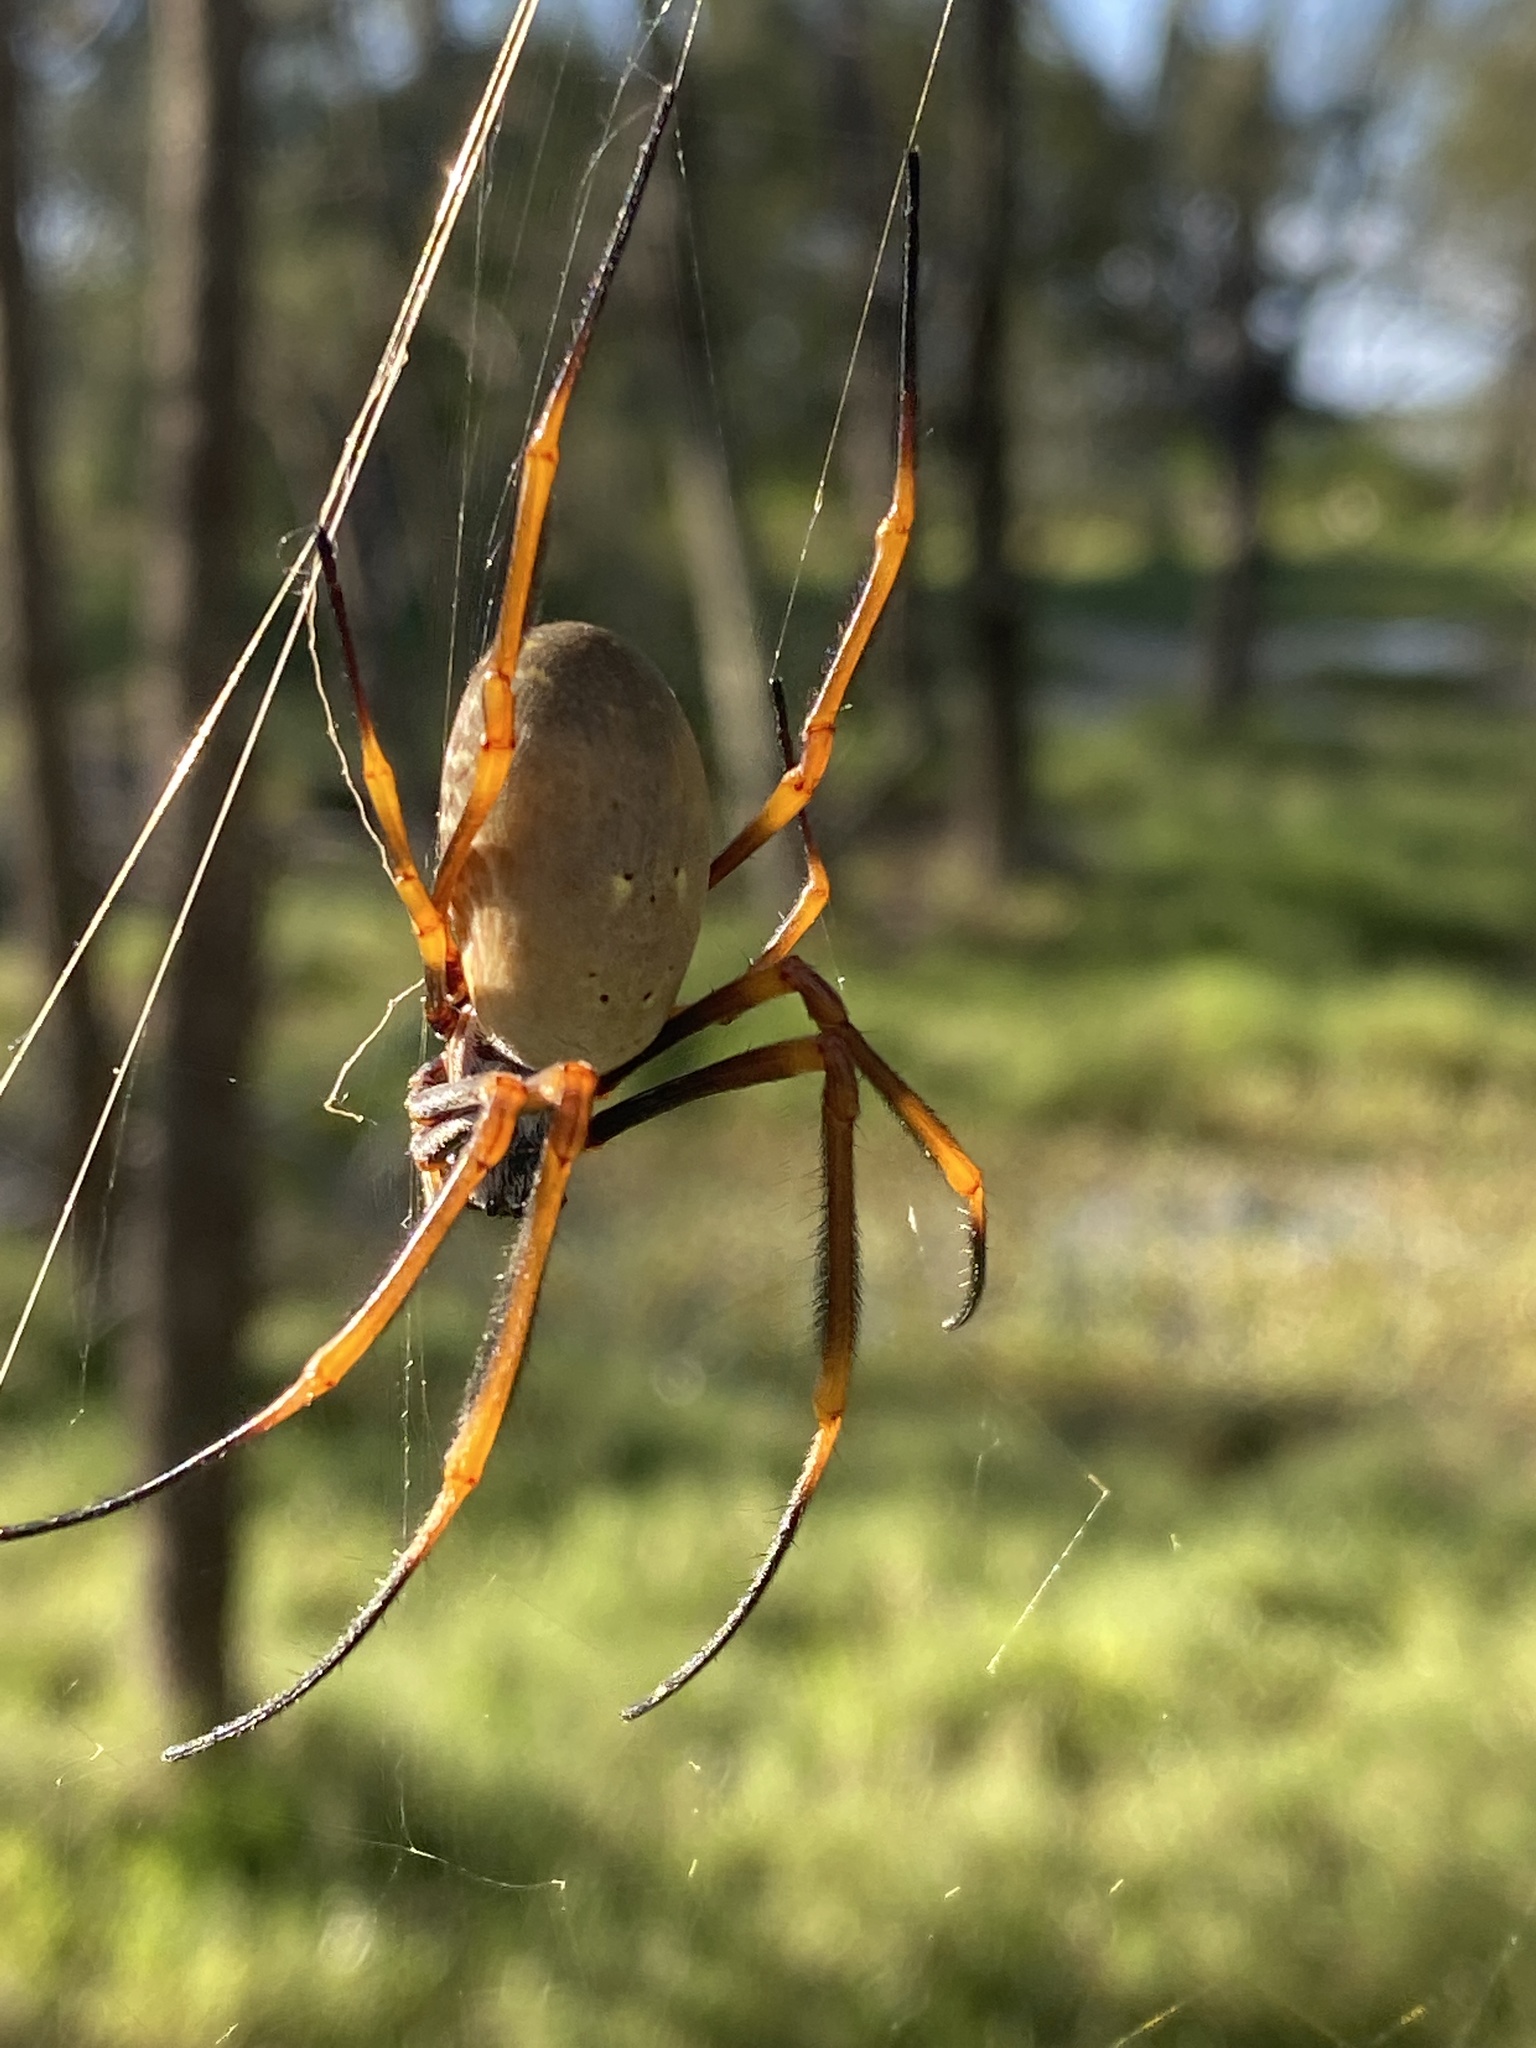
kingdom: Animalia
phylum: Arthropoda
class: Arachnida
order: Araneae
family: Araneidae
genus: Trichonephila
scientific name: Trichonephila plumipes
